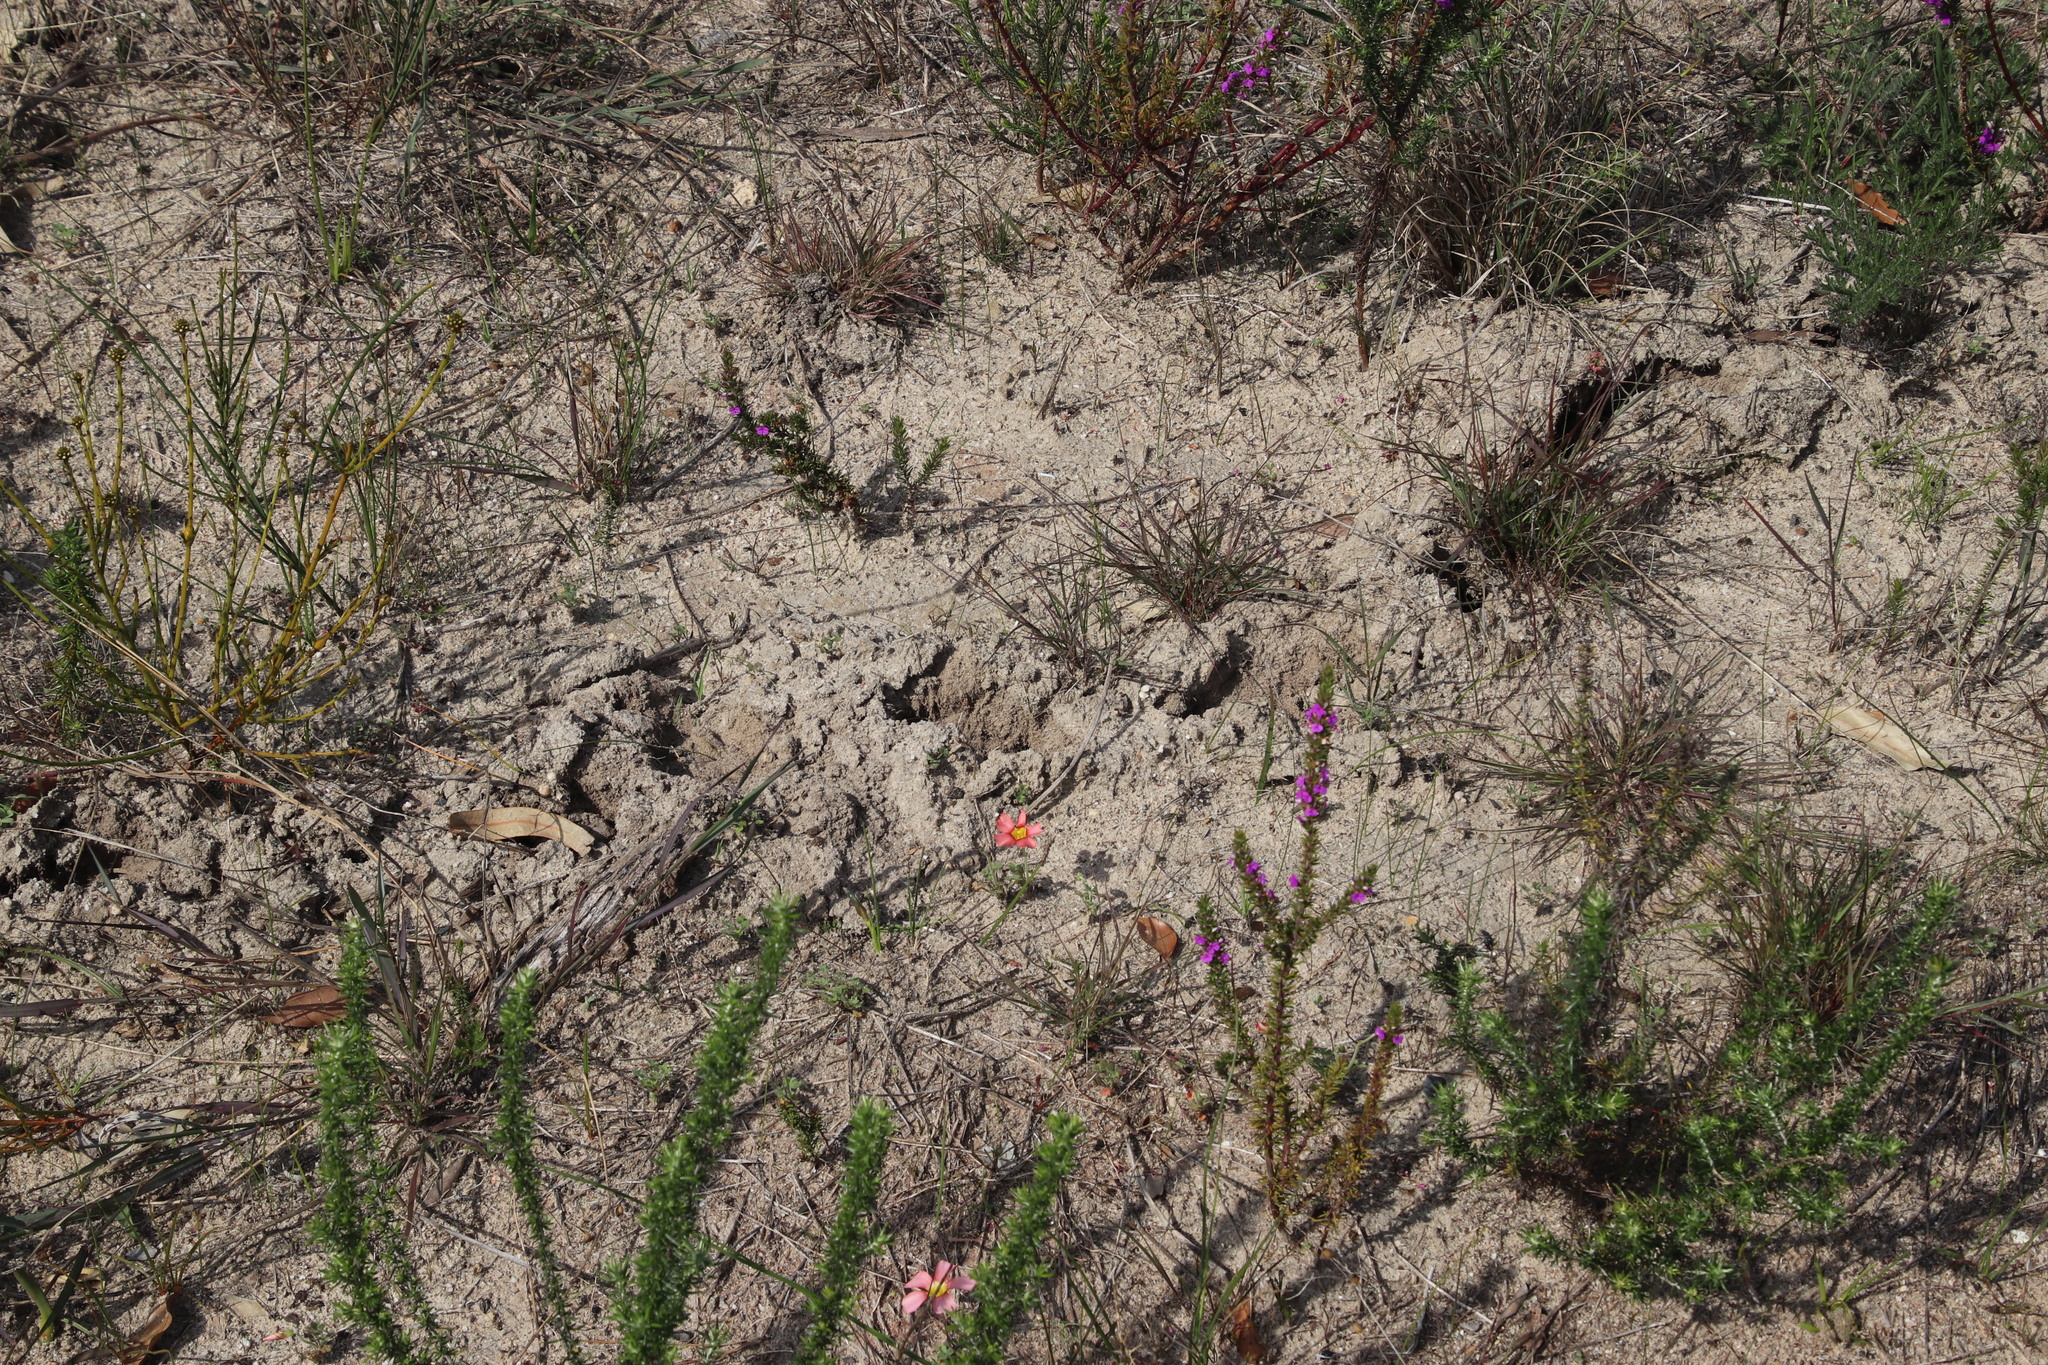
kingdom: Animalia
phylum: Chordata
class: Mammalia
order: Afrosoricida
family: Chrysochloridae
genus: Chrysochloris
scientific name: Chrysochloris asiatica
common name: Cape golden mole
